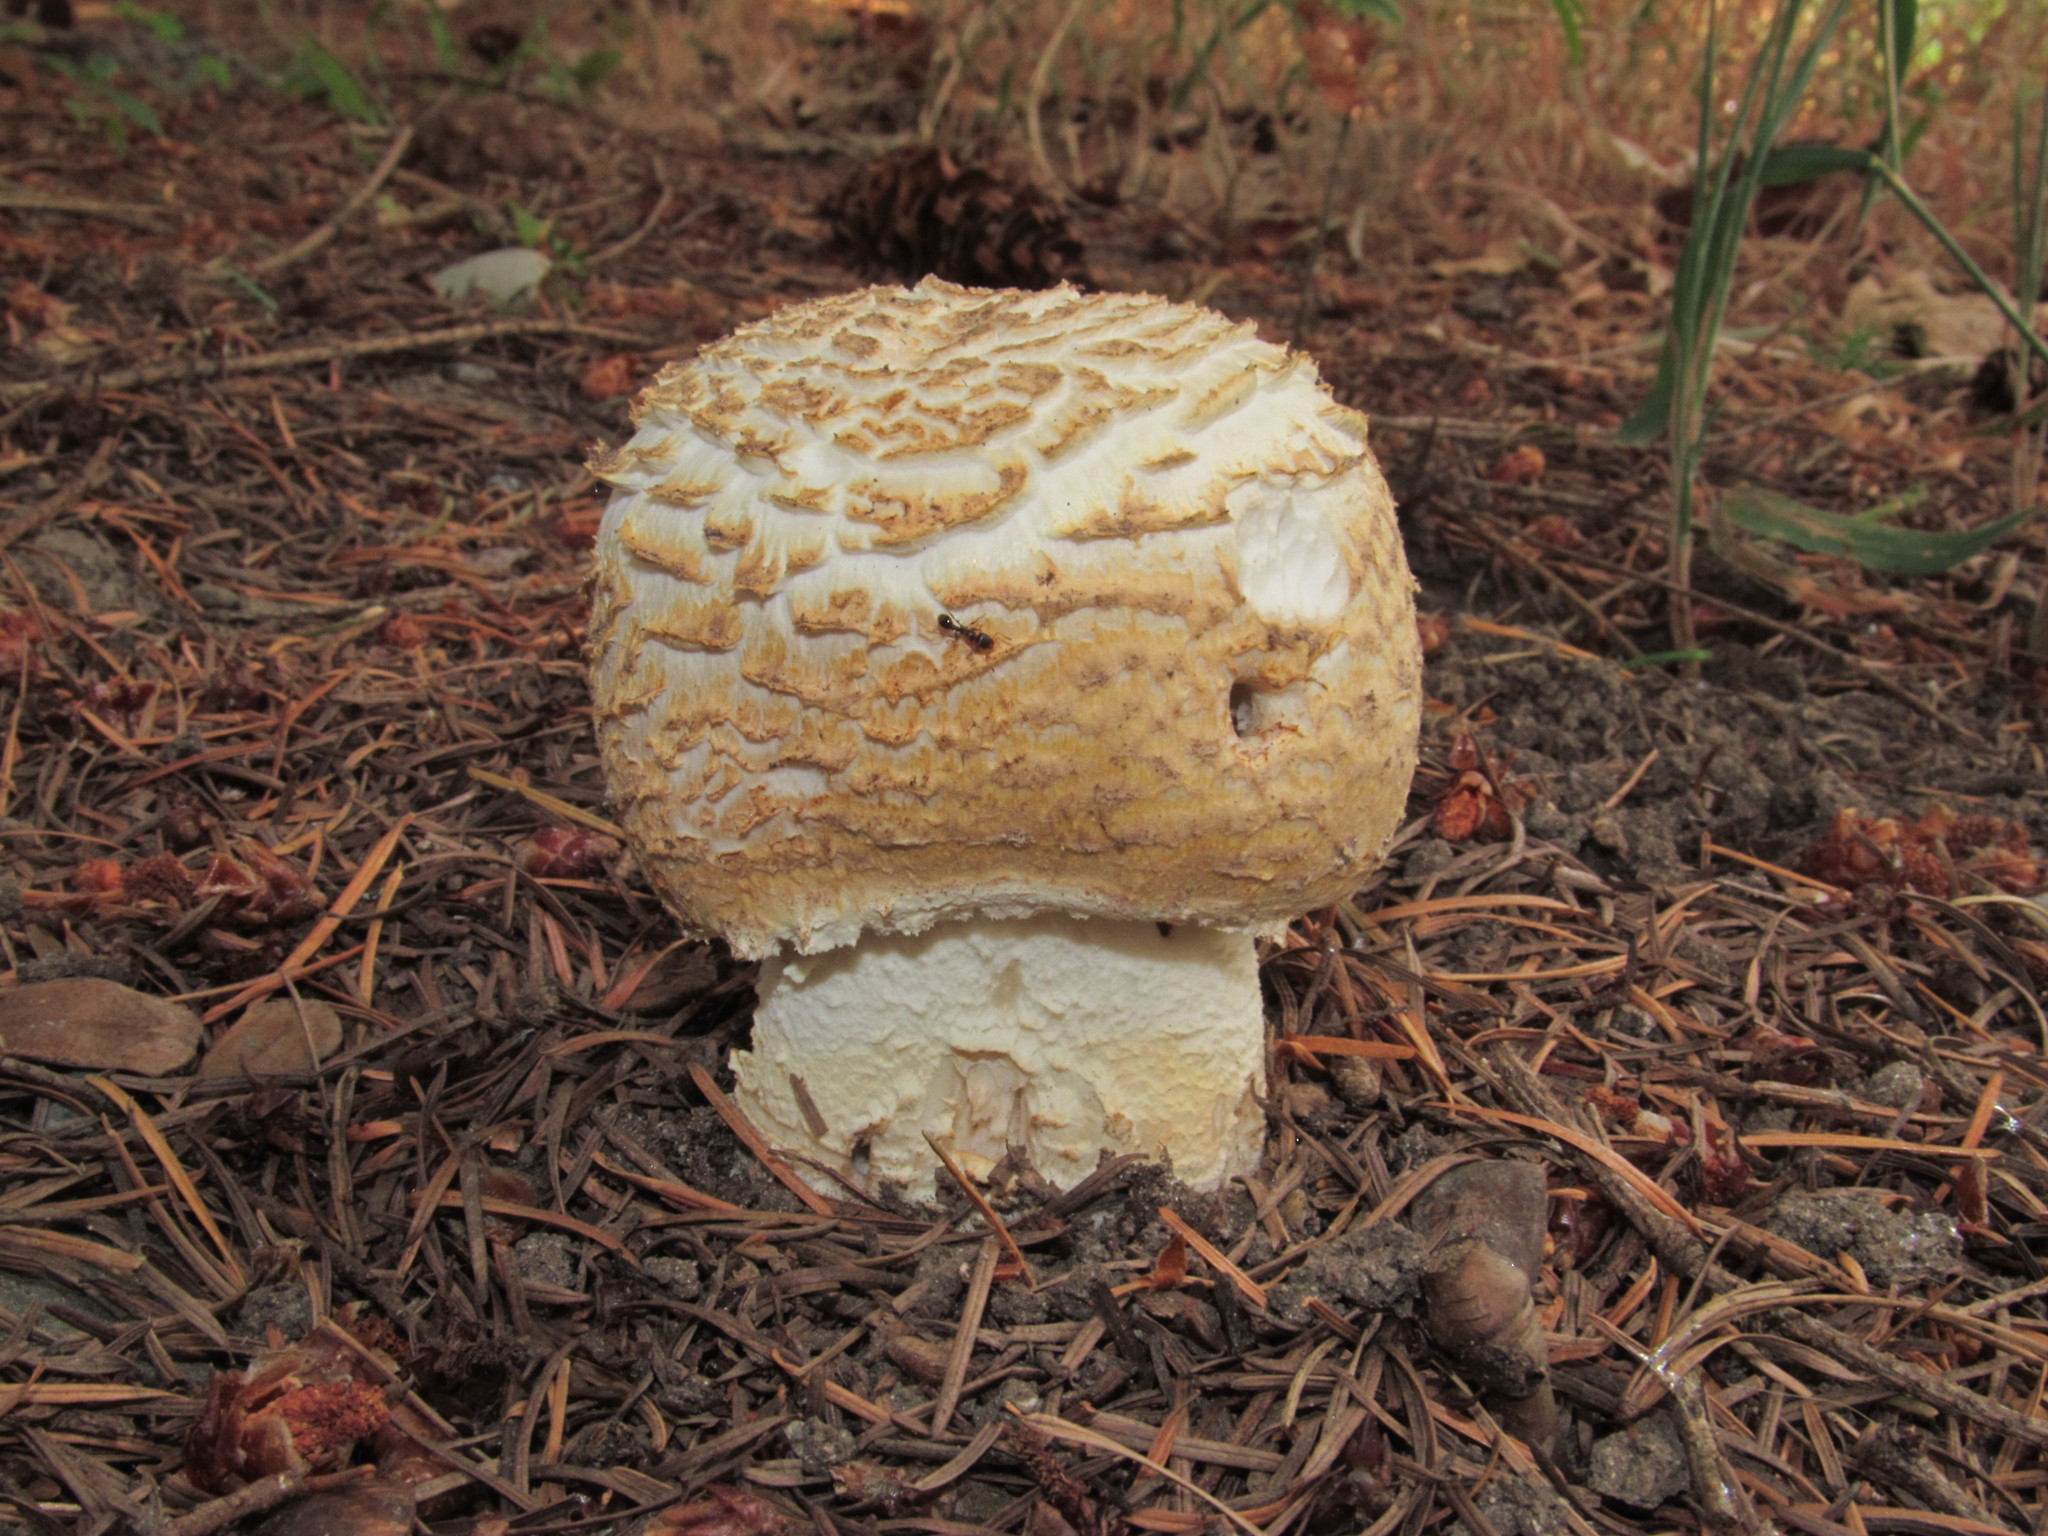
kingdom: Fungi
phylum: Basidiomycota
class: Agaricomycetes
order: Agaricales
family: Agaricaceae
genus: Agaricus
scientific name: Agaricus augustus
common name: Prince
